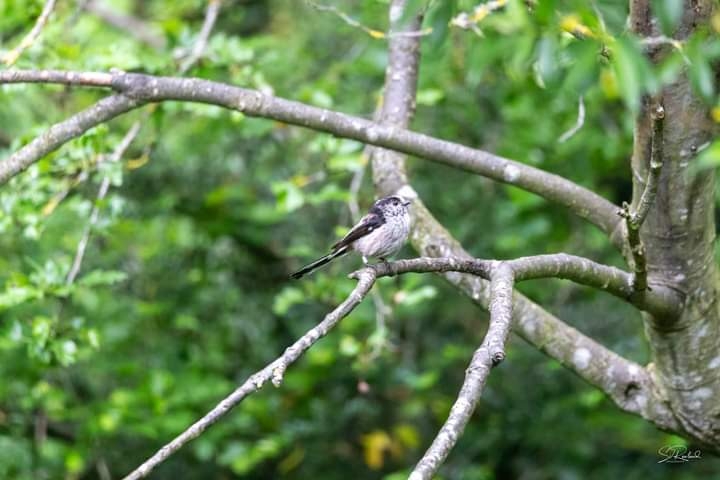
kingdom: Animalia
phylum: Chordata
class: Aves
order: Passeriformes
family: Aegithalidae
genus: Aegithalos
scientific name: Aegithalos caudatus
